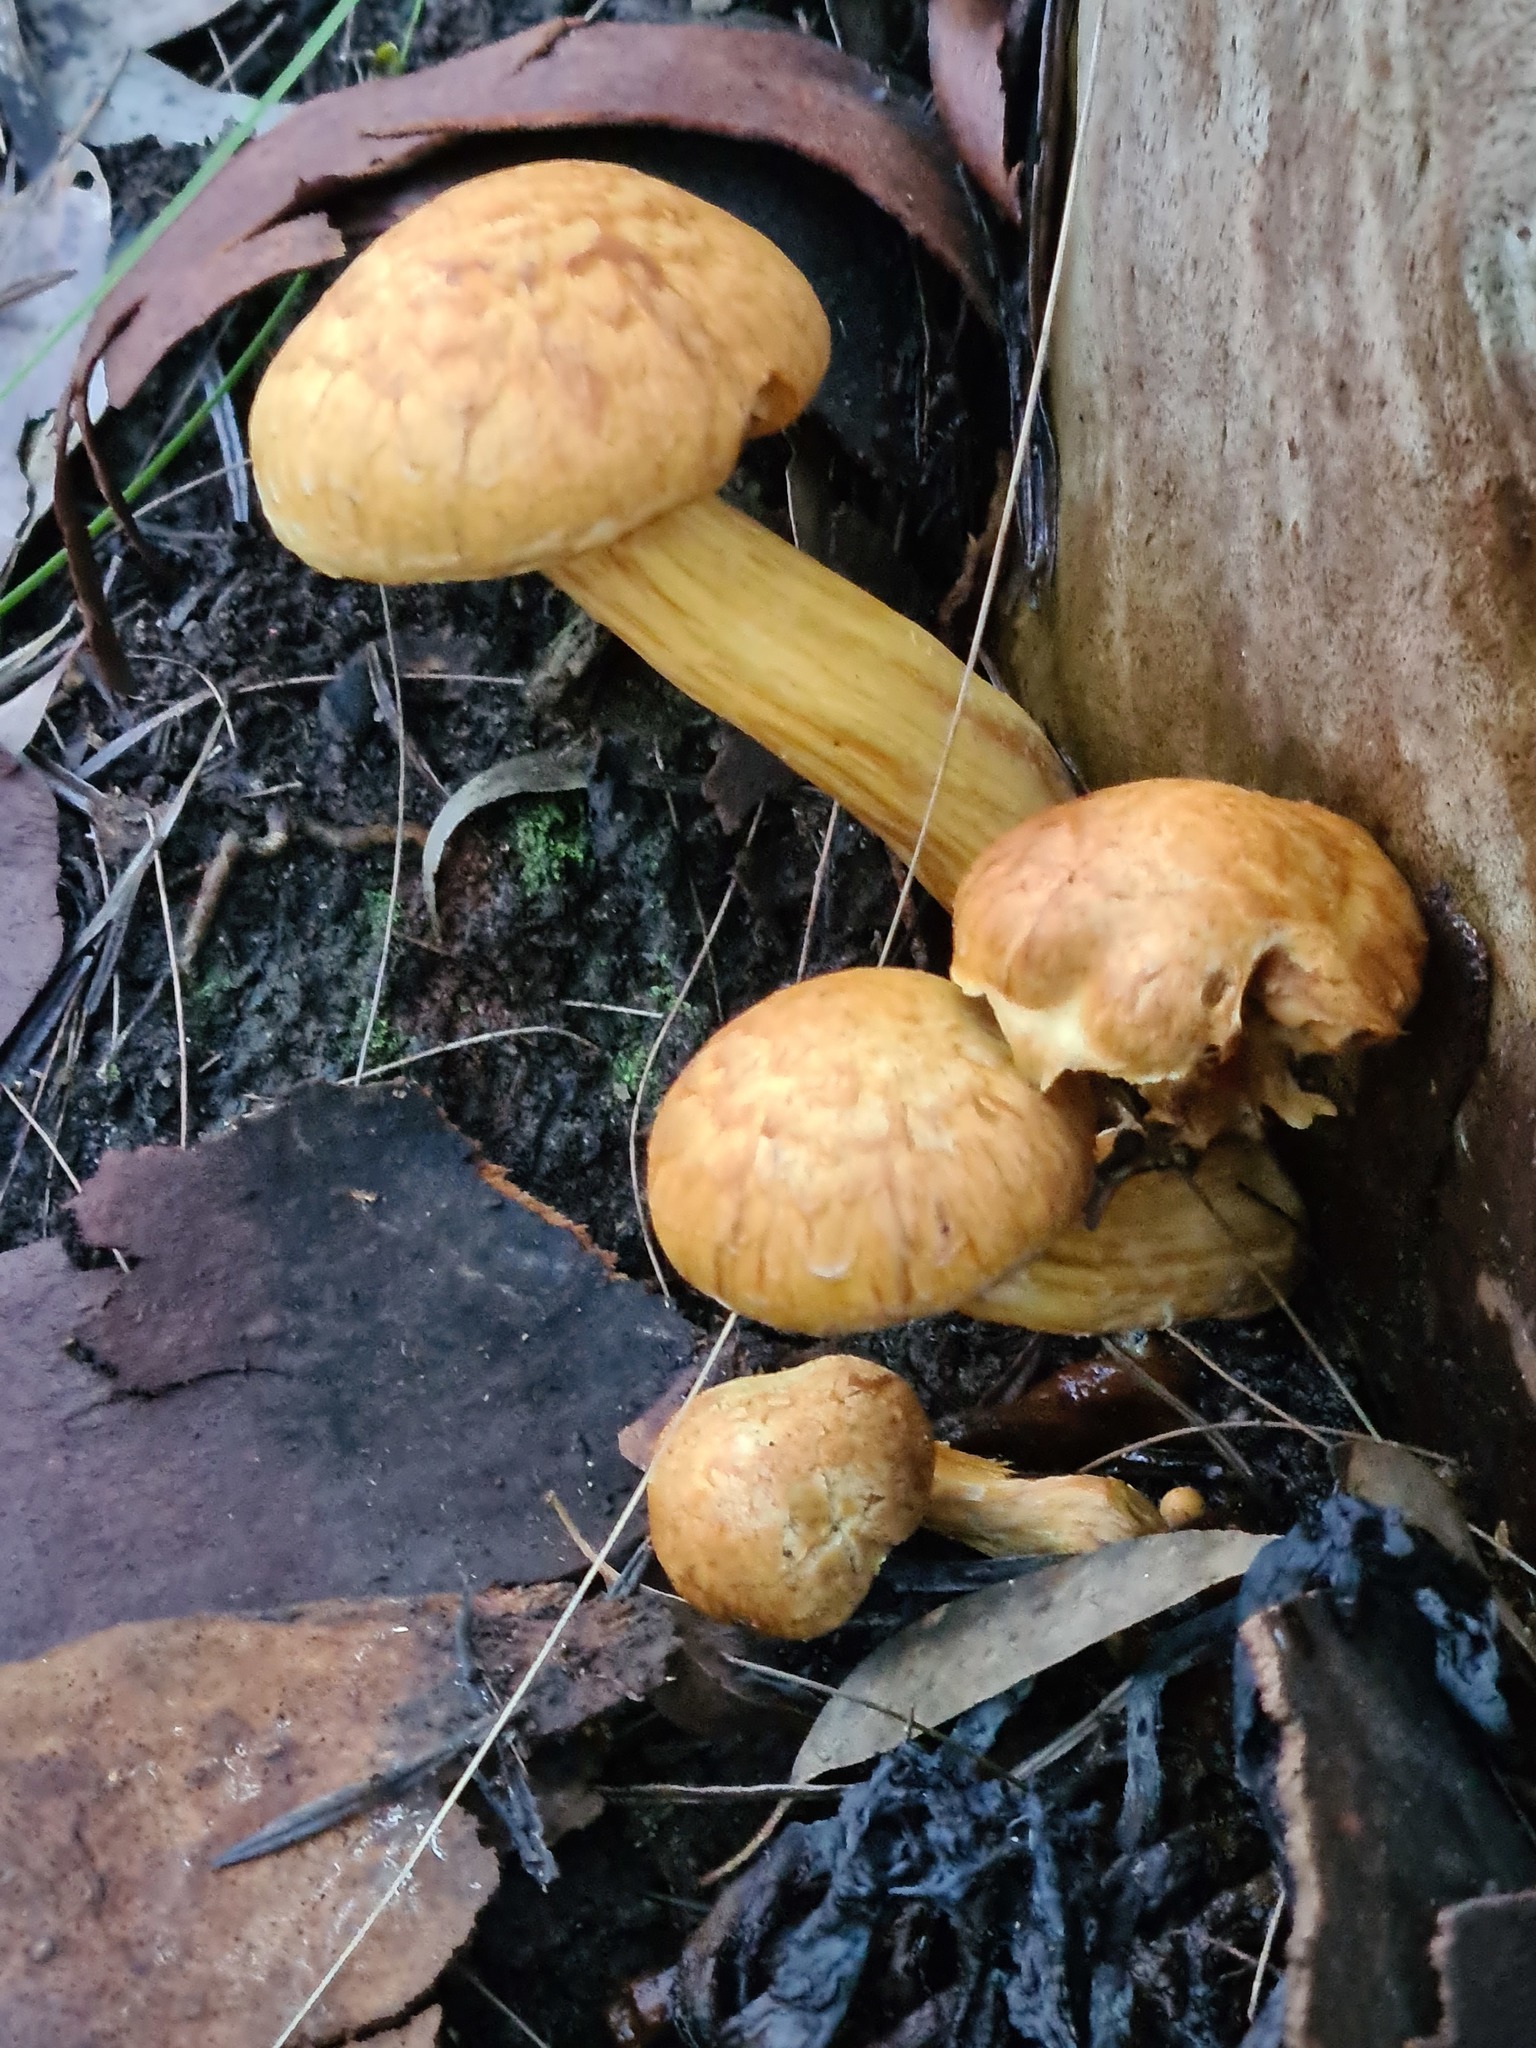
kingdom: Fungi
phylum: Basidiomycota
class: Agaricomycetes
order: Agaricales
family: Hymenogastraceae
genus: Gymnopilus
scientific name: Gymnopilus junonius
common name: Spectacular rustgill
